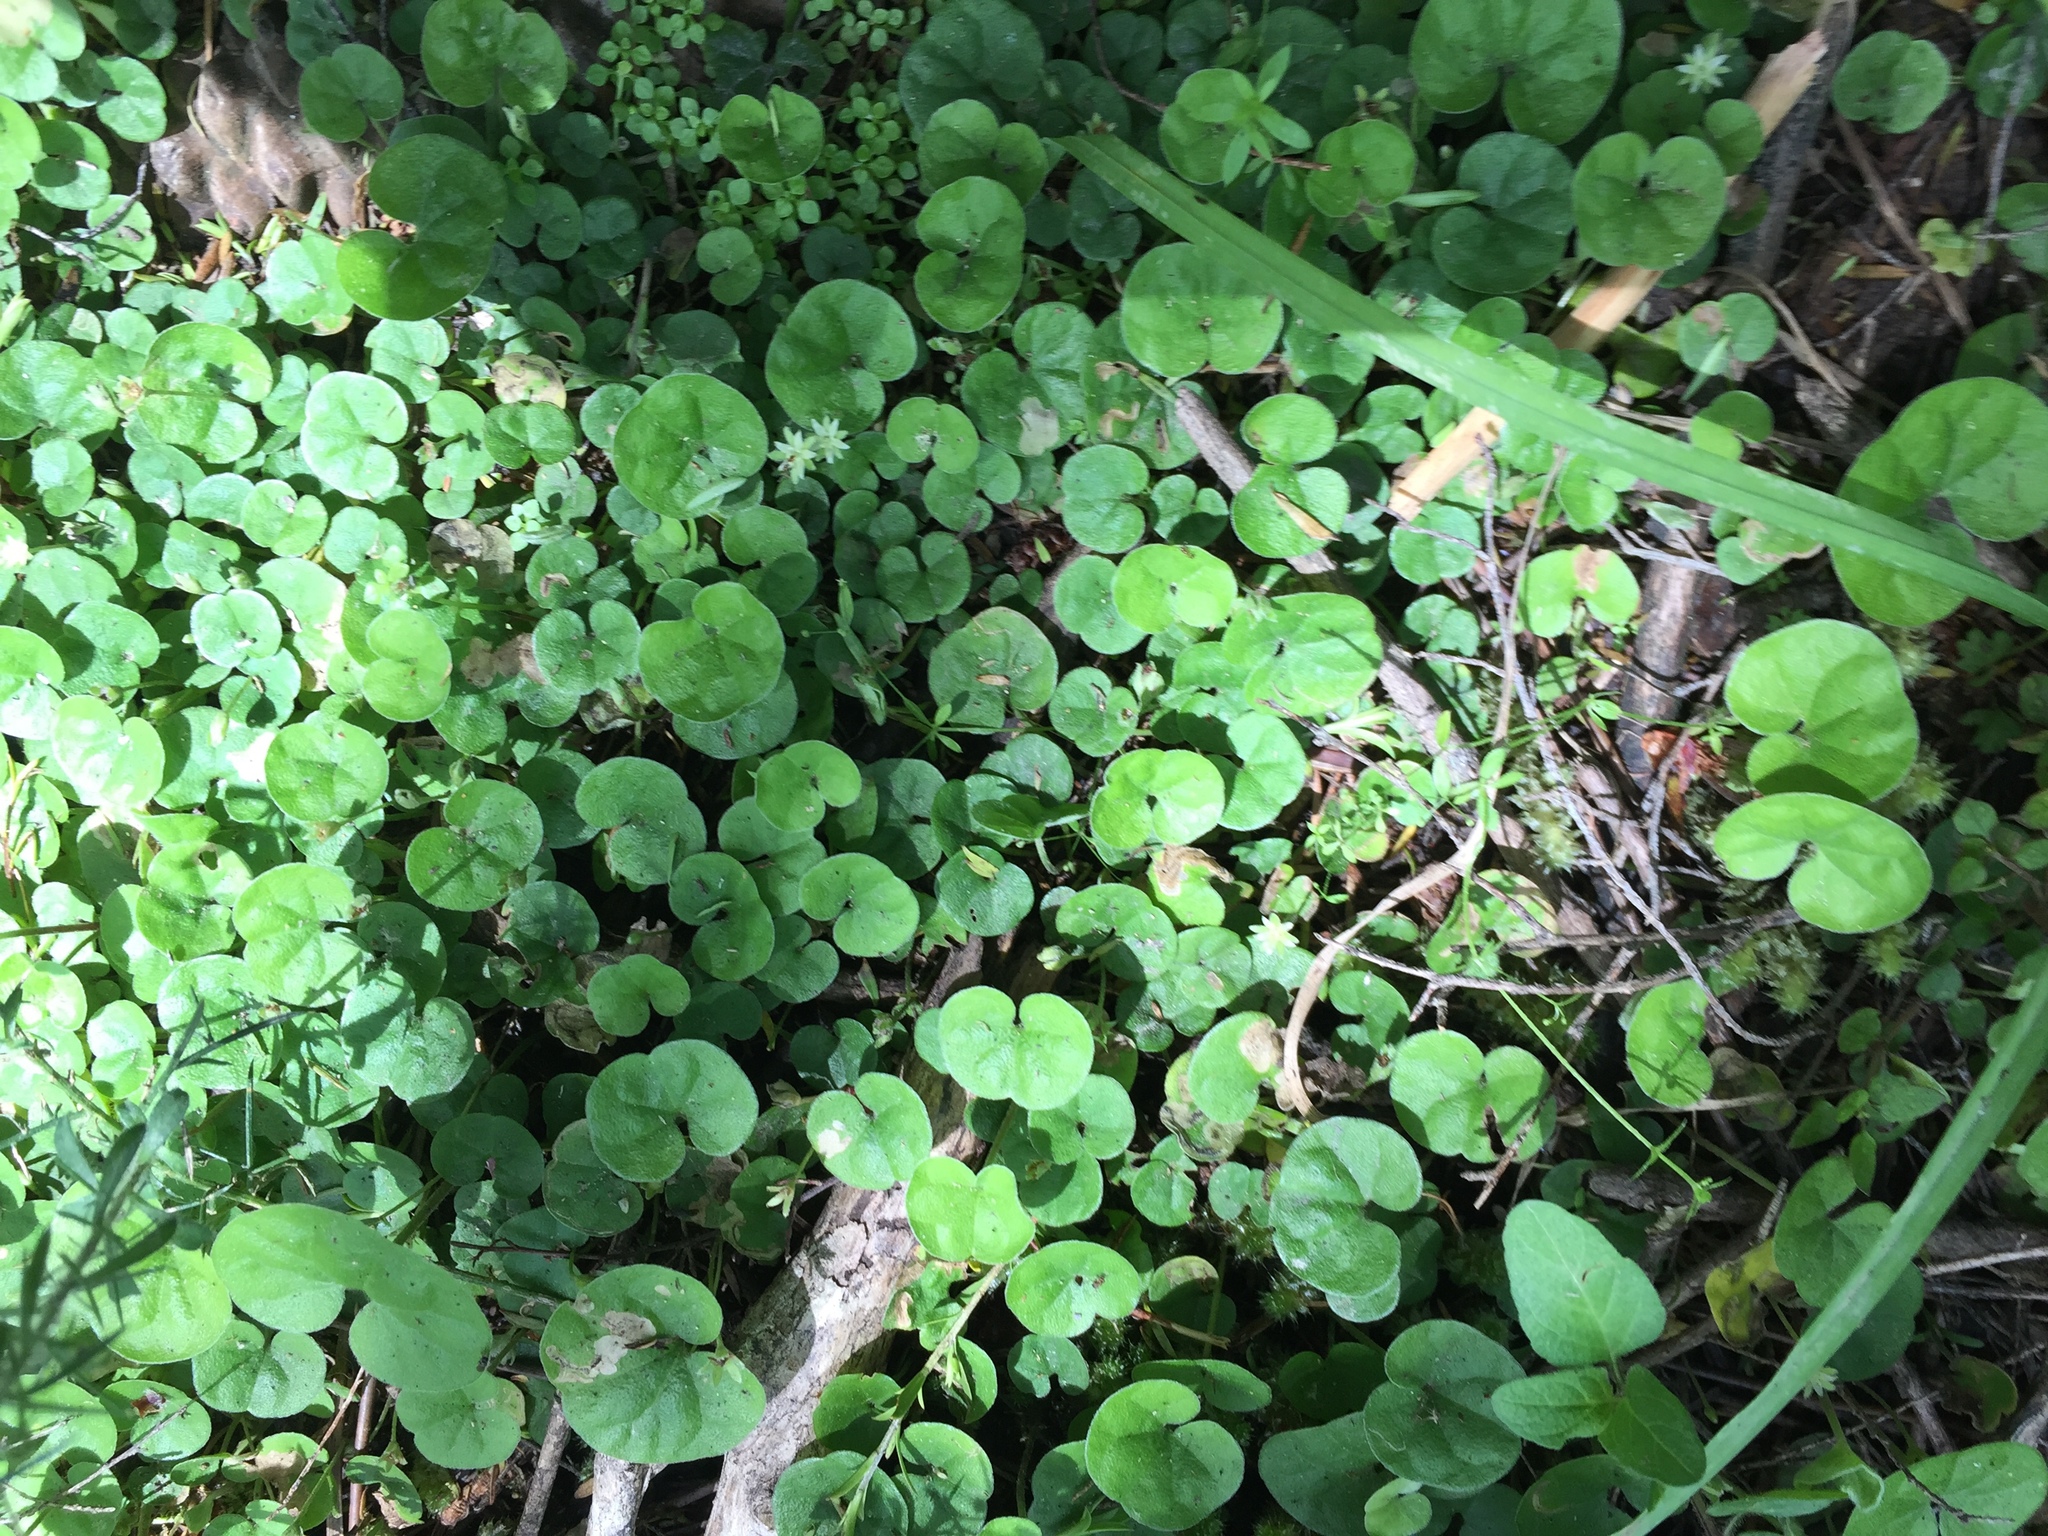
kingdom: Plantae
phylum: Tracheophyta
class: Magnoliopsida
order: Solanales
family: Convolvulaceae
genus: Dichondra
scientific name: Dichondra repens
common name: Kidneyweed
